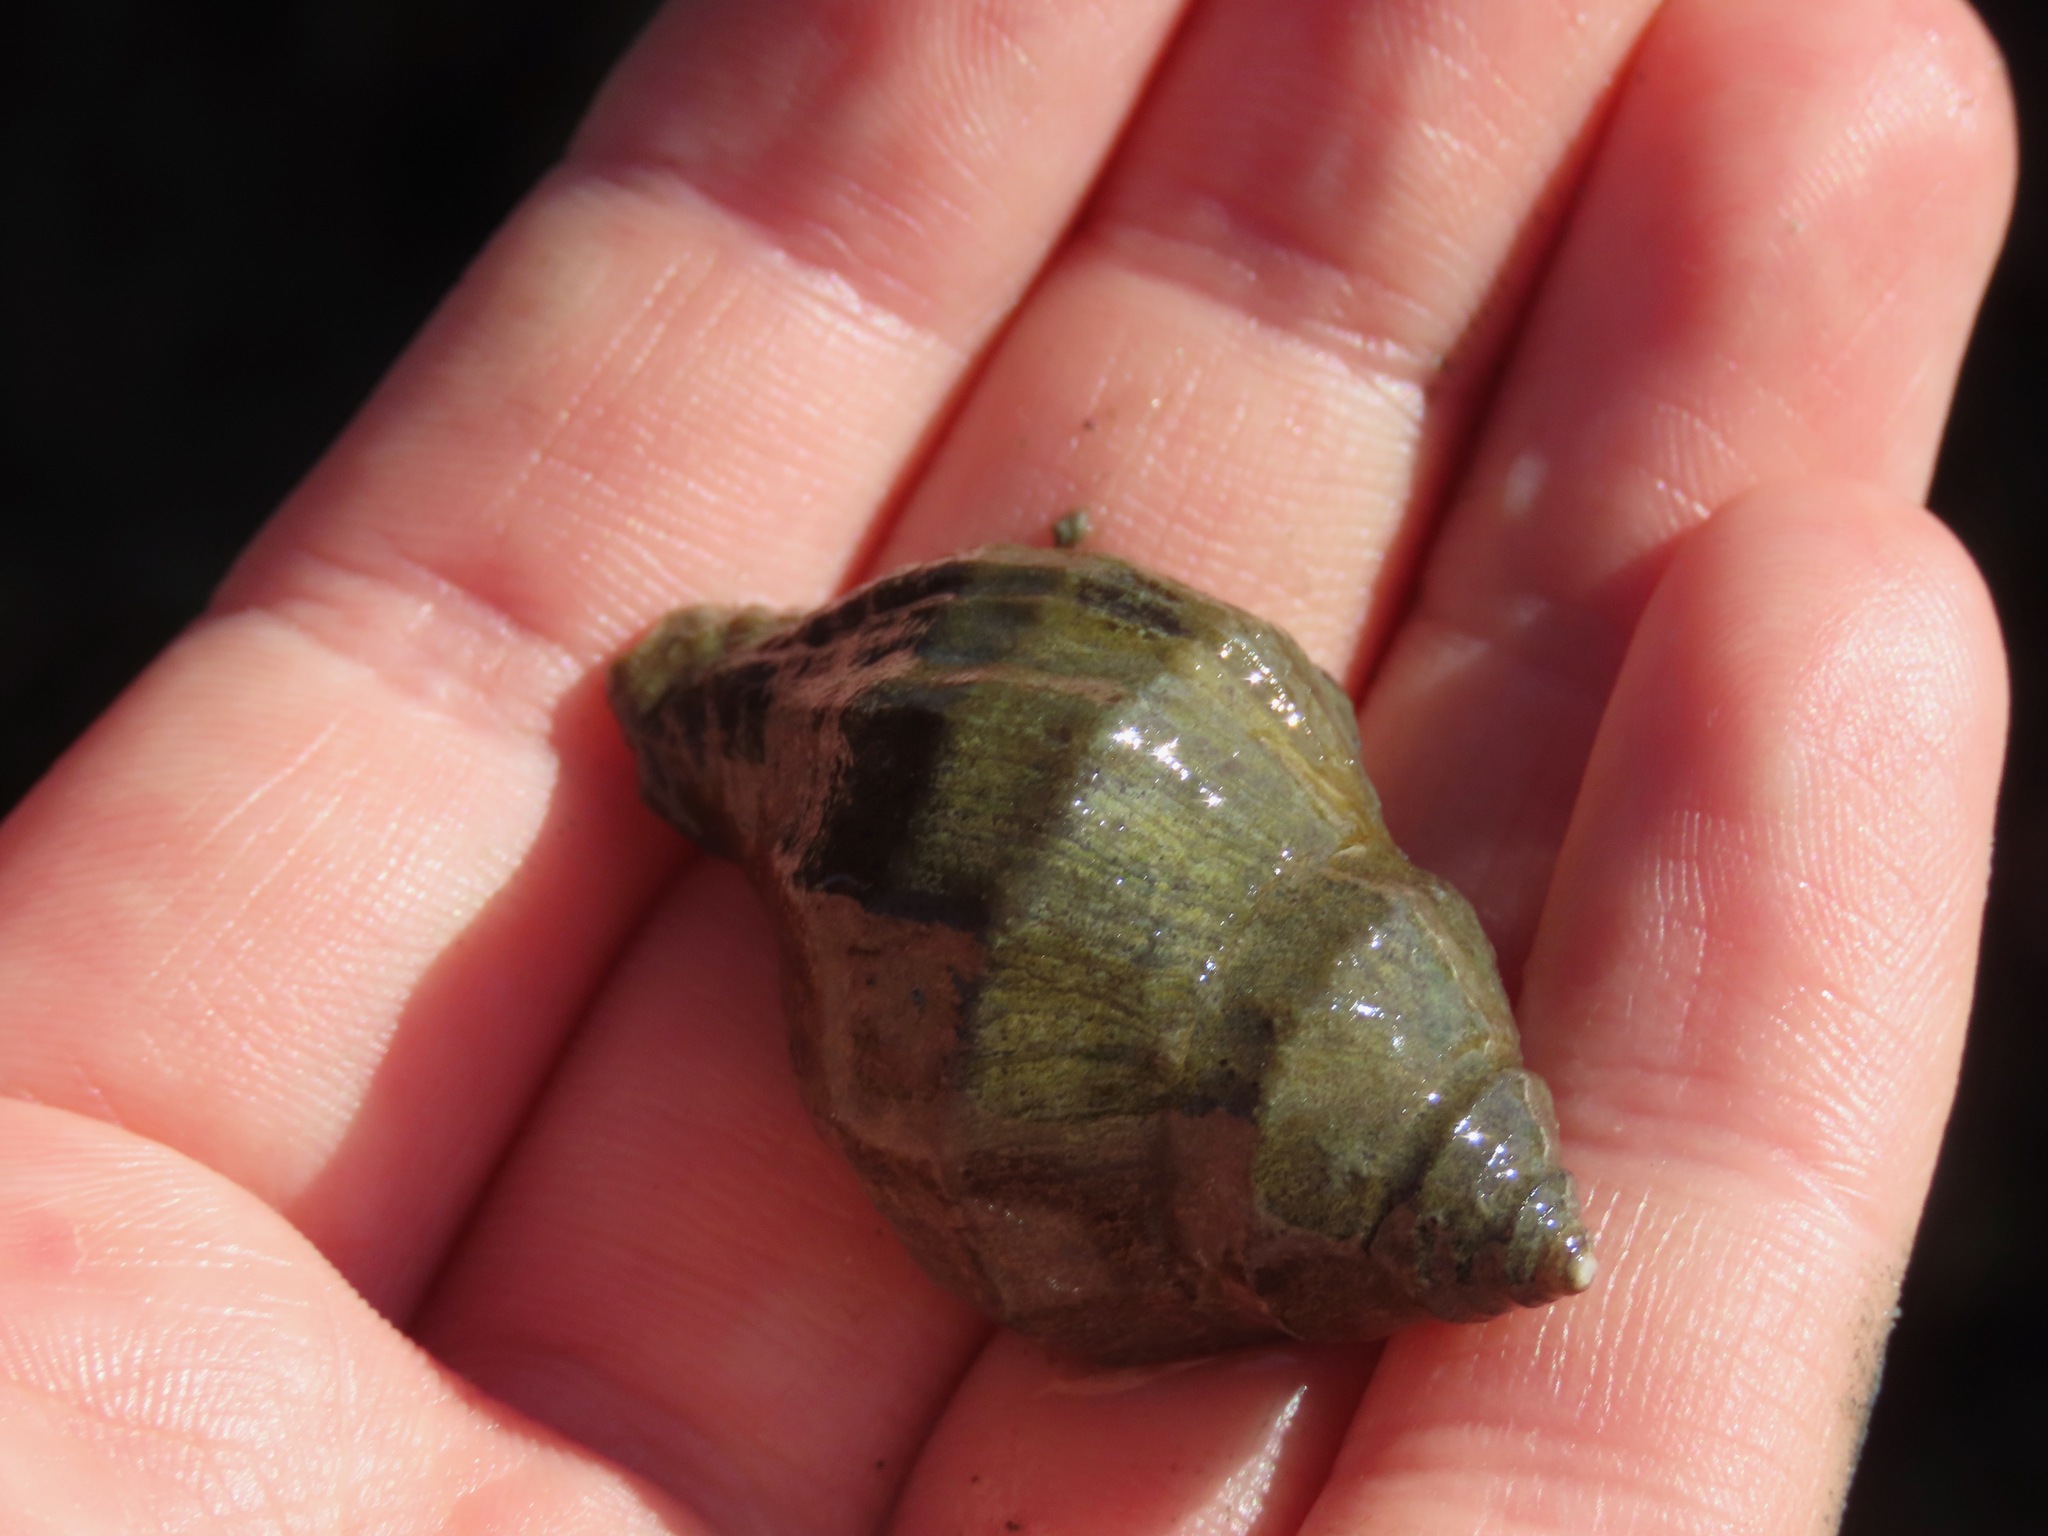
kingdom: Animalia
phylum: Mollusca
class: Gastropoda
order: Neogastropoda
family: Muricidae
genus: Nucella
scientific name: Nucella lamellosa
